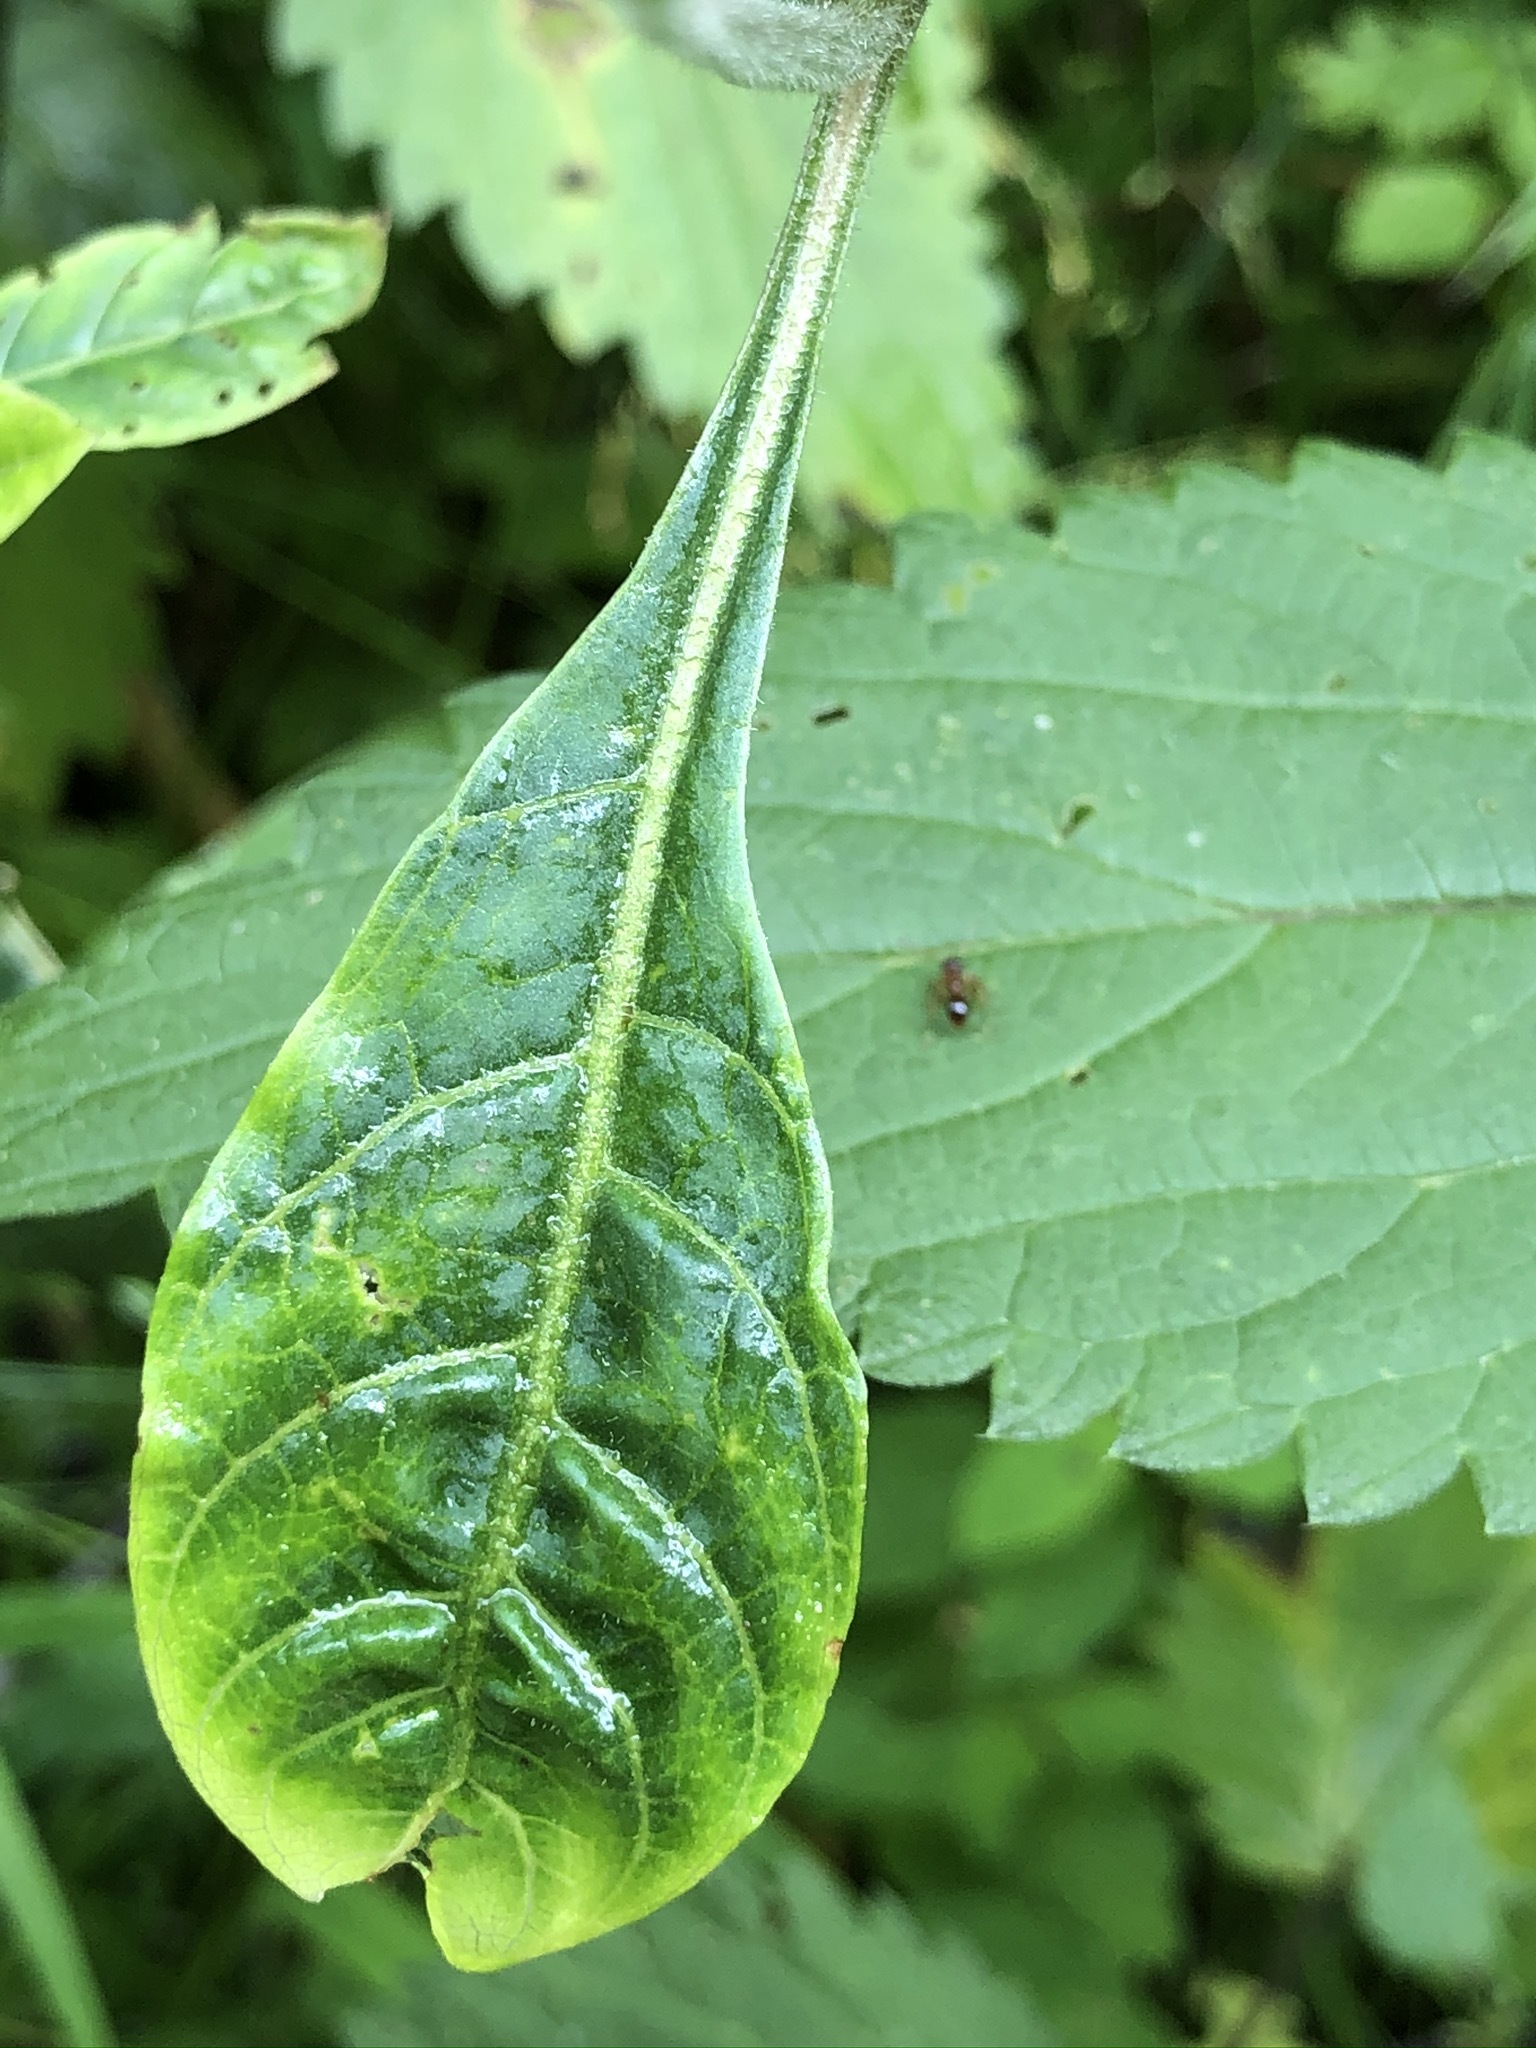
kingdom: Plantae
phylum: Tracheophyta
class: Magnoliopsida
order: Solanales
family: Solanaceae
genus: Atropa
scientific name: Atropa belladonna
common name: Deadly nightshade
